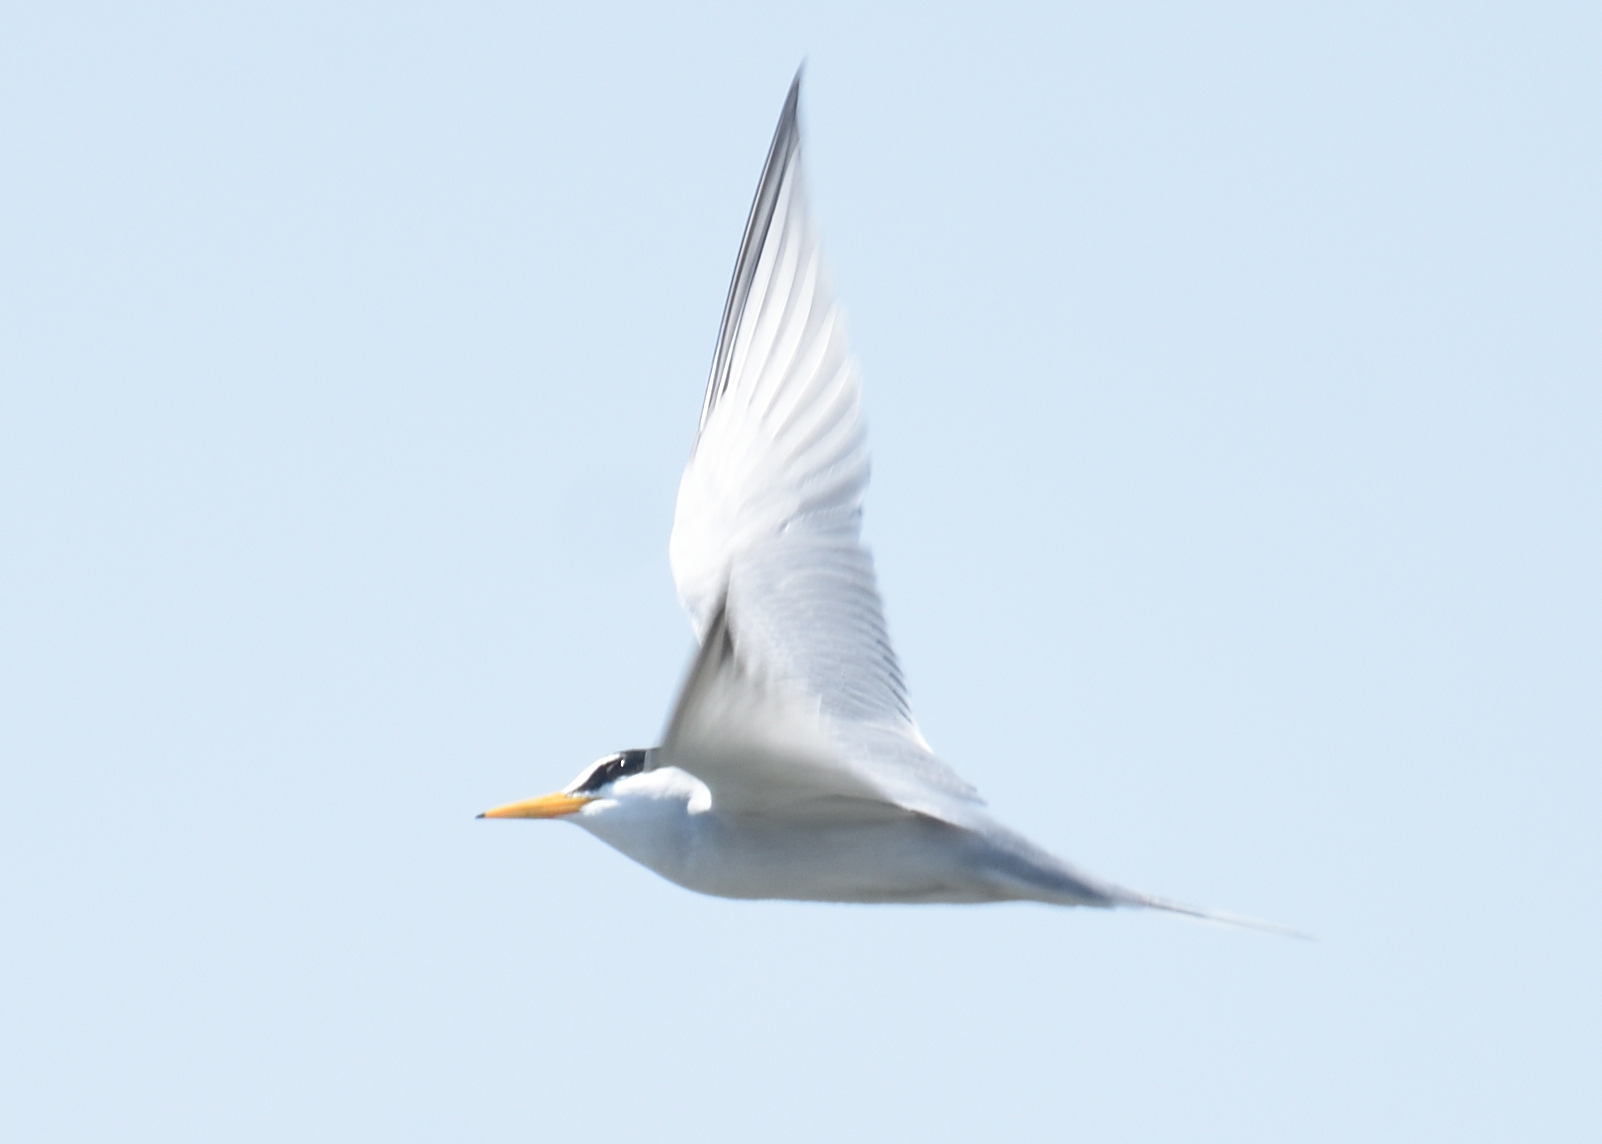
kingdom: Animalia
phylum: Chordata
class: Aves
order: Charadriiformes
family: Laridae
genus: Sternula
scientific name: Sternula antillarum
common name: Least tern
